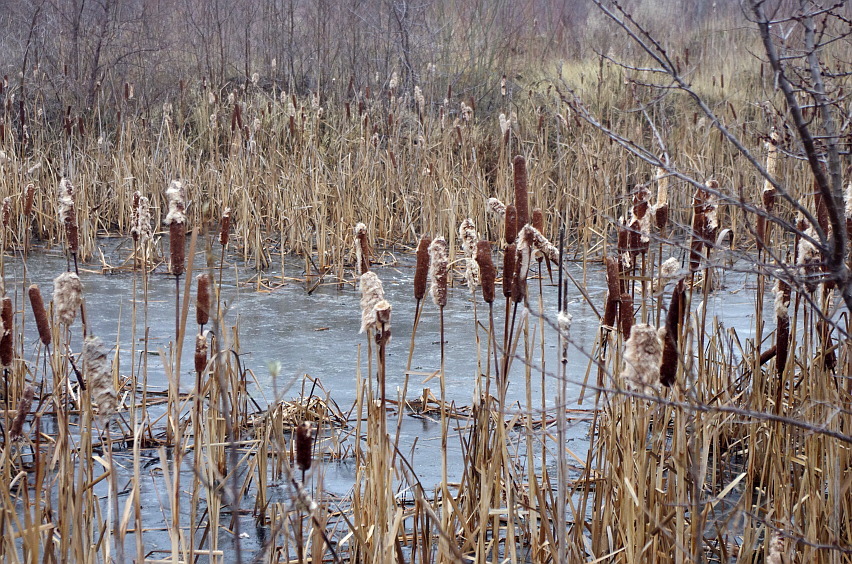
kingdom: Plantae
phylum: Tracheophyta
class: Liliopsida
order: Poales
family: Typhaceae
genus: Typha
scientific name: Typha latifolia
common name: Broadleaf cattail
